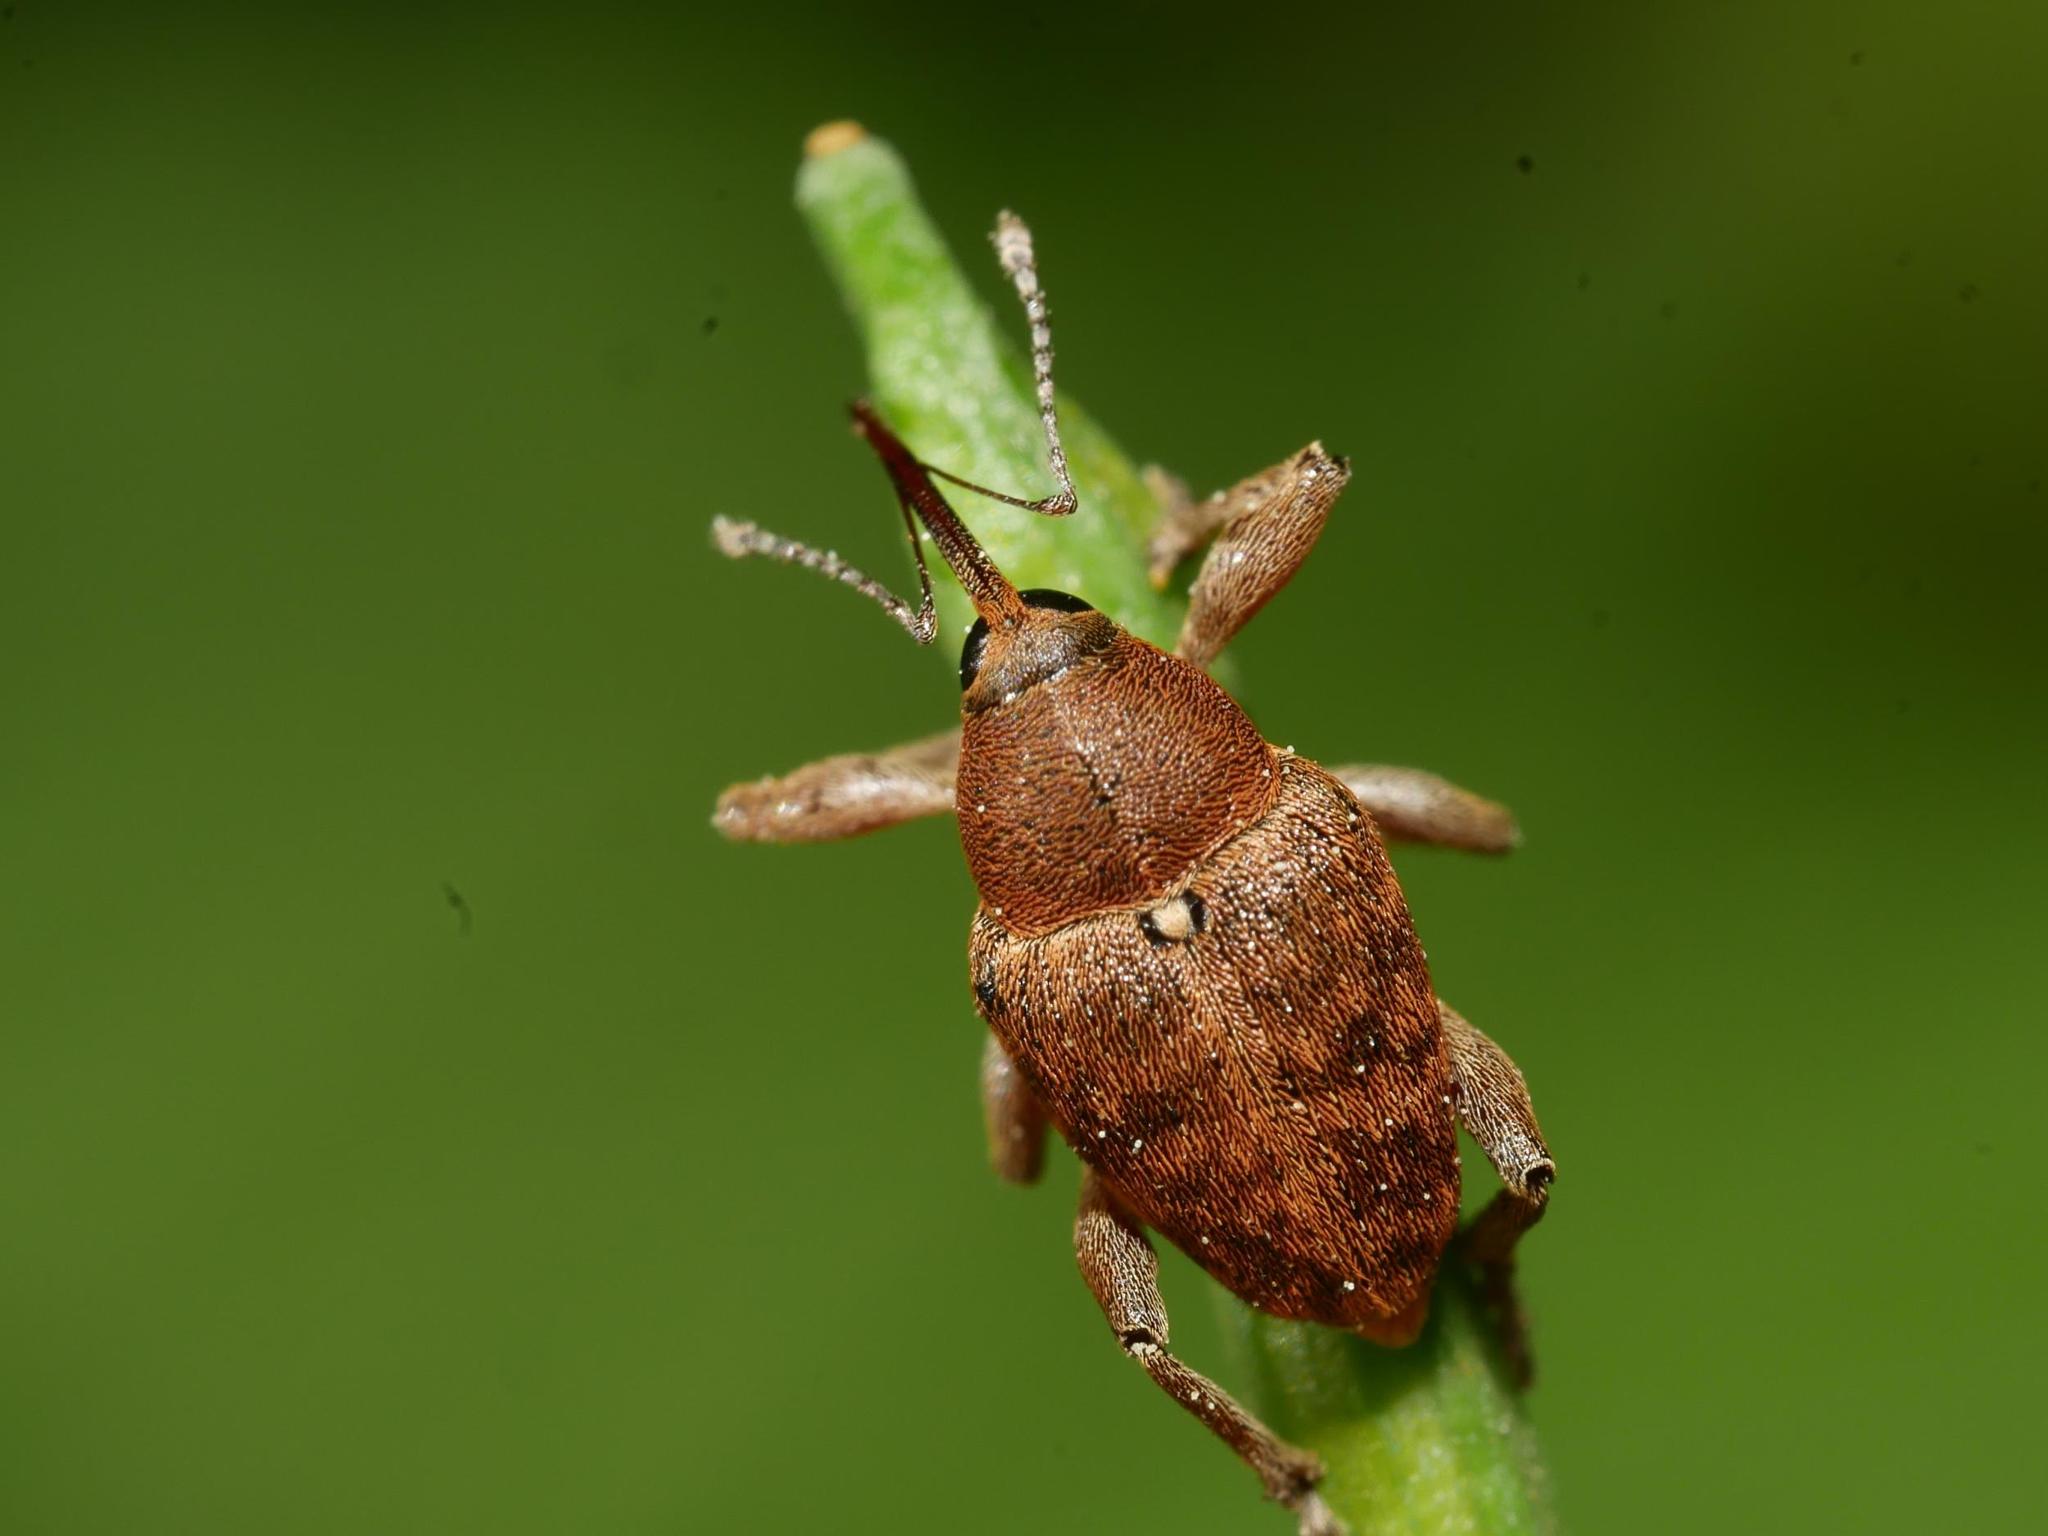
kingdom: Animalia
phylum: Arthropoda
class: Insecta
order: Coleoptera
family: Curculionidae
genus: Curculio
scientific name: Curculio glandium
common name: Acorn weevil
